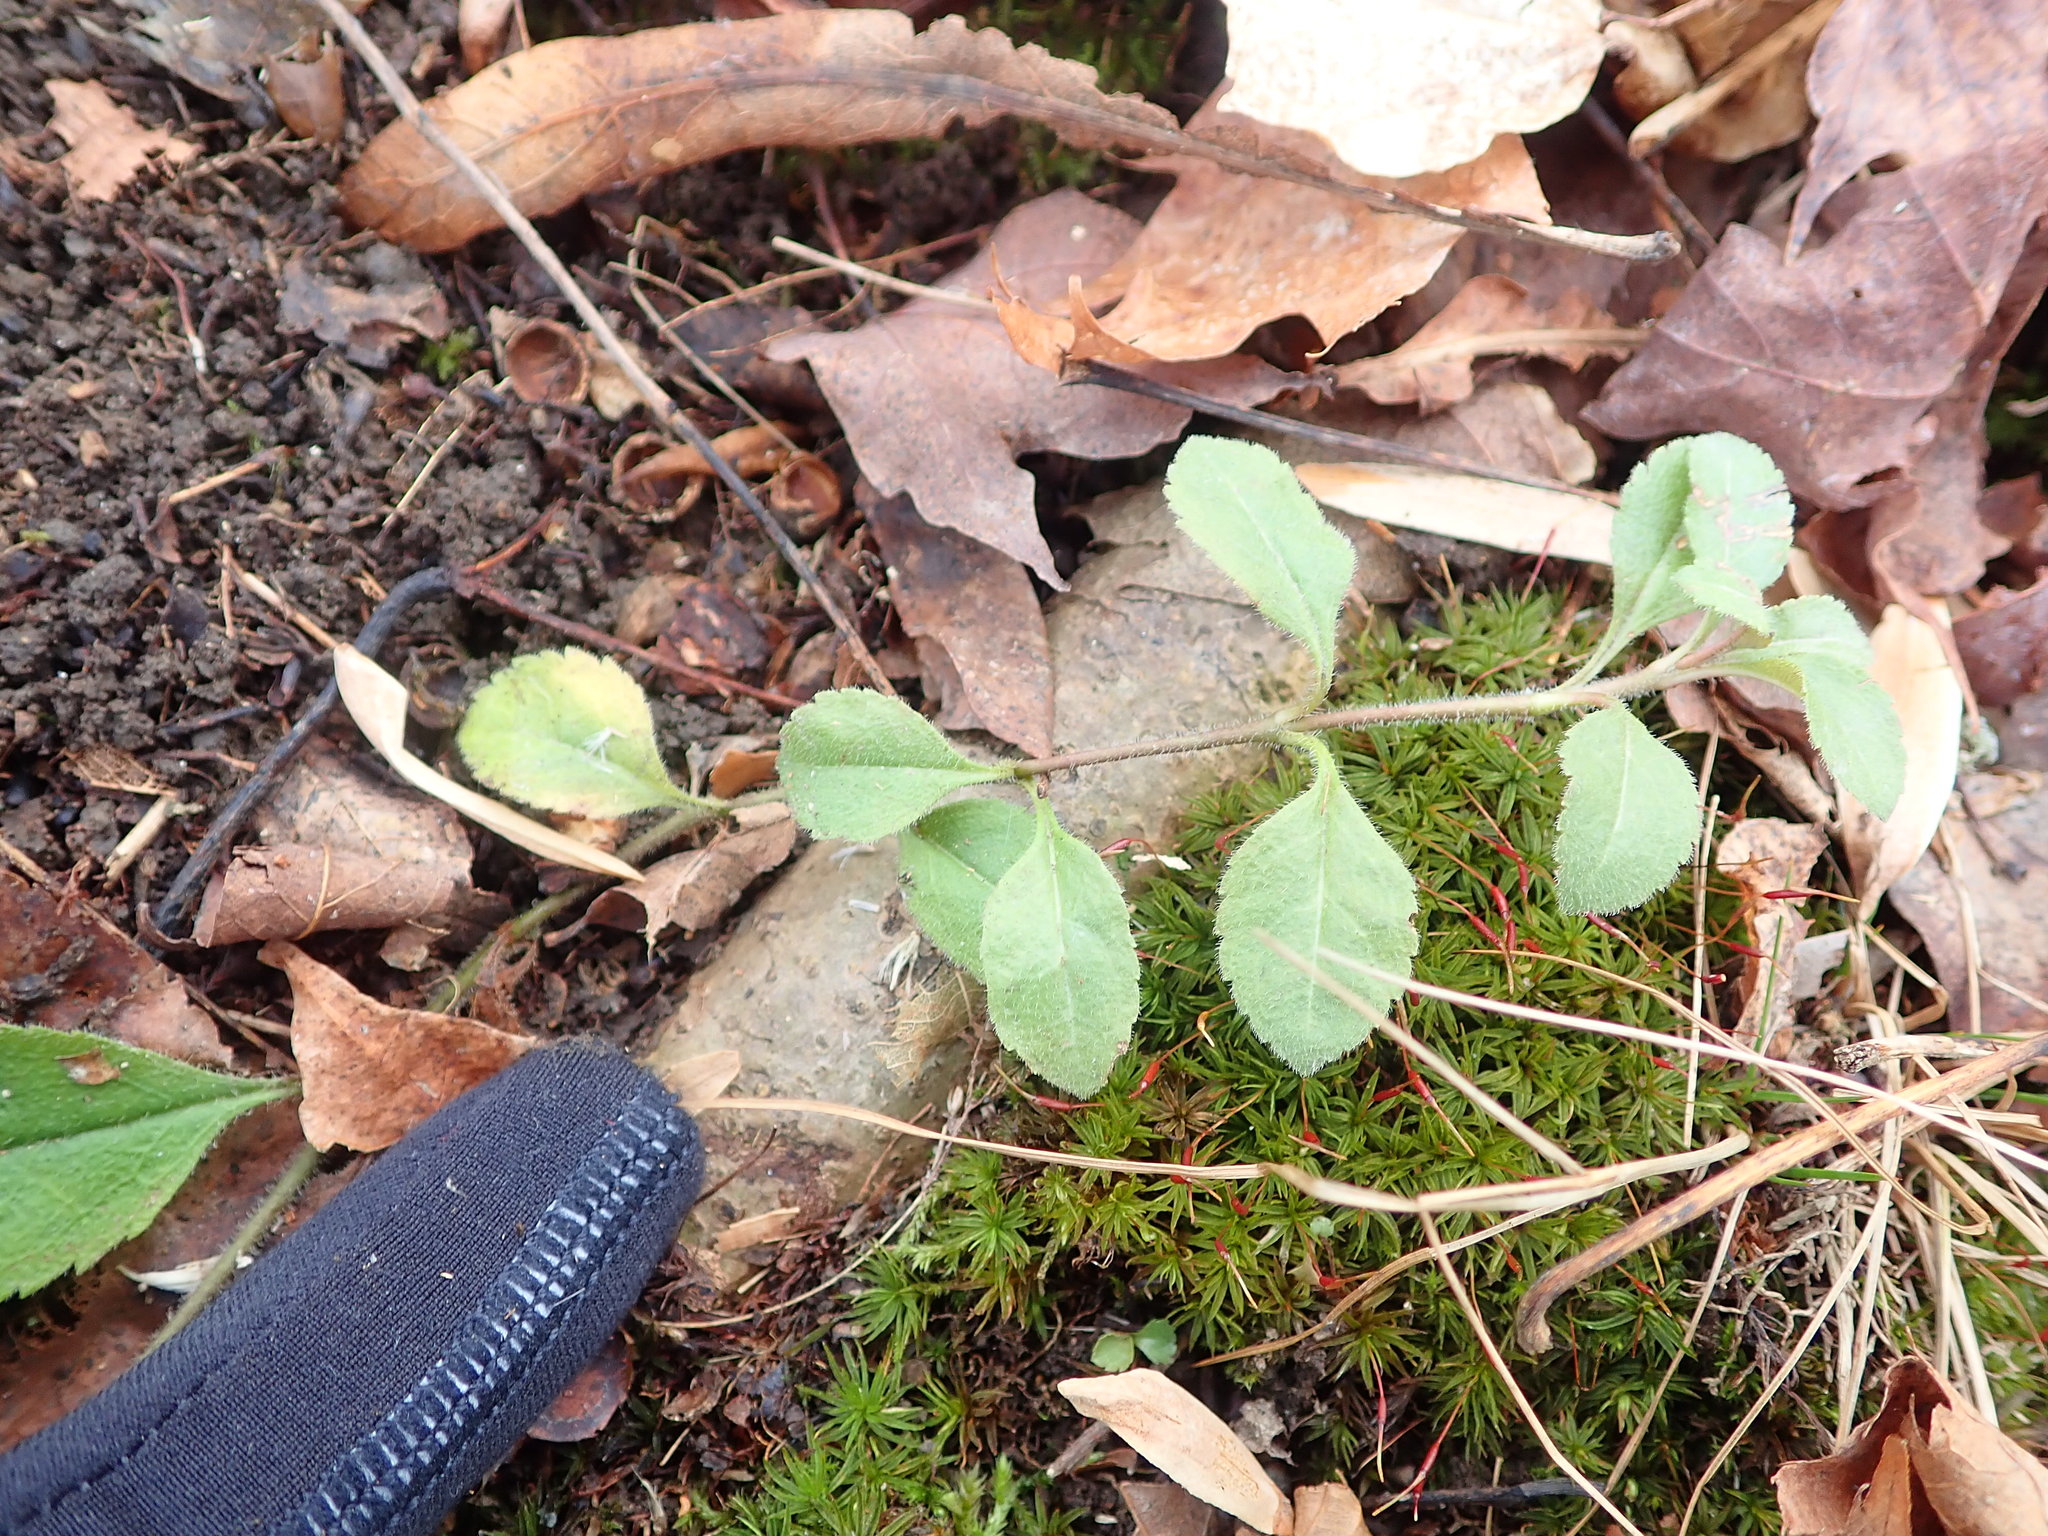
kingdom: Plantae
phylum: Tracheophyta
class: Magnoliopsida
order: Lamiales
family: Plantaginaceae
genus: Veronica
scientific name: Veronica officinalis
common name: Common speedwell
